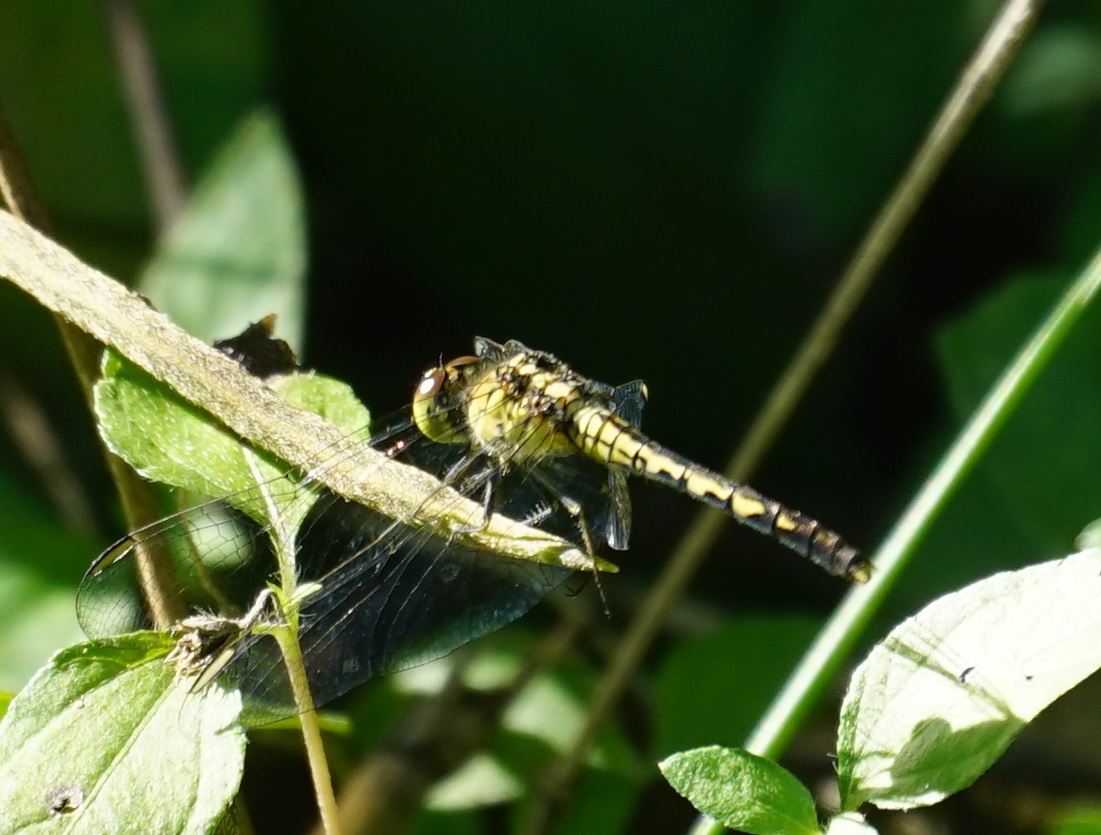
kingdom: Animalia
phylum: Arthropoda
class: Insecta
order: Odonata
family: Libellulidae
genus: Diplacodes
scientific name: Diplacodes trivialis
